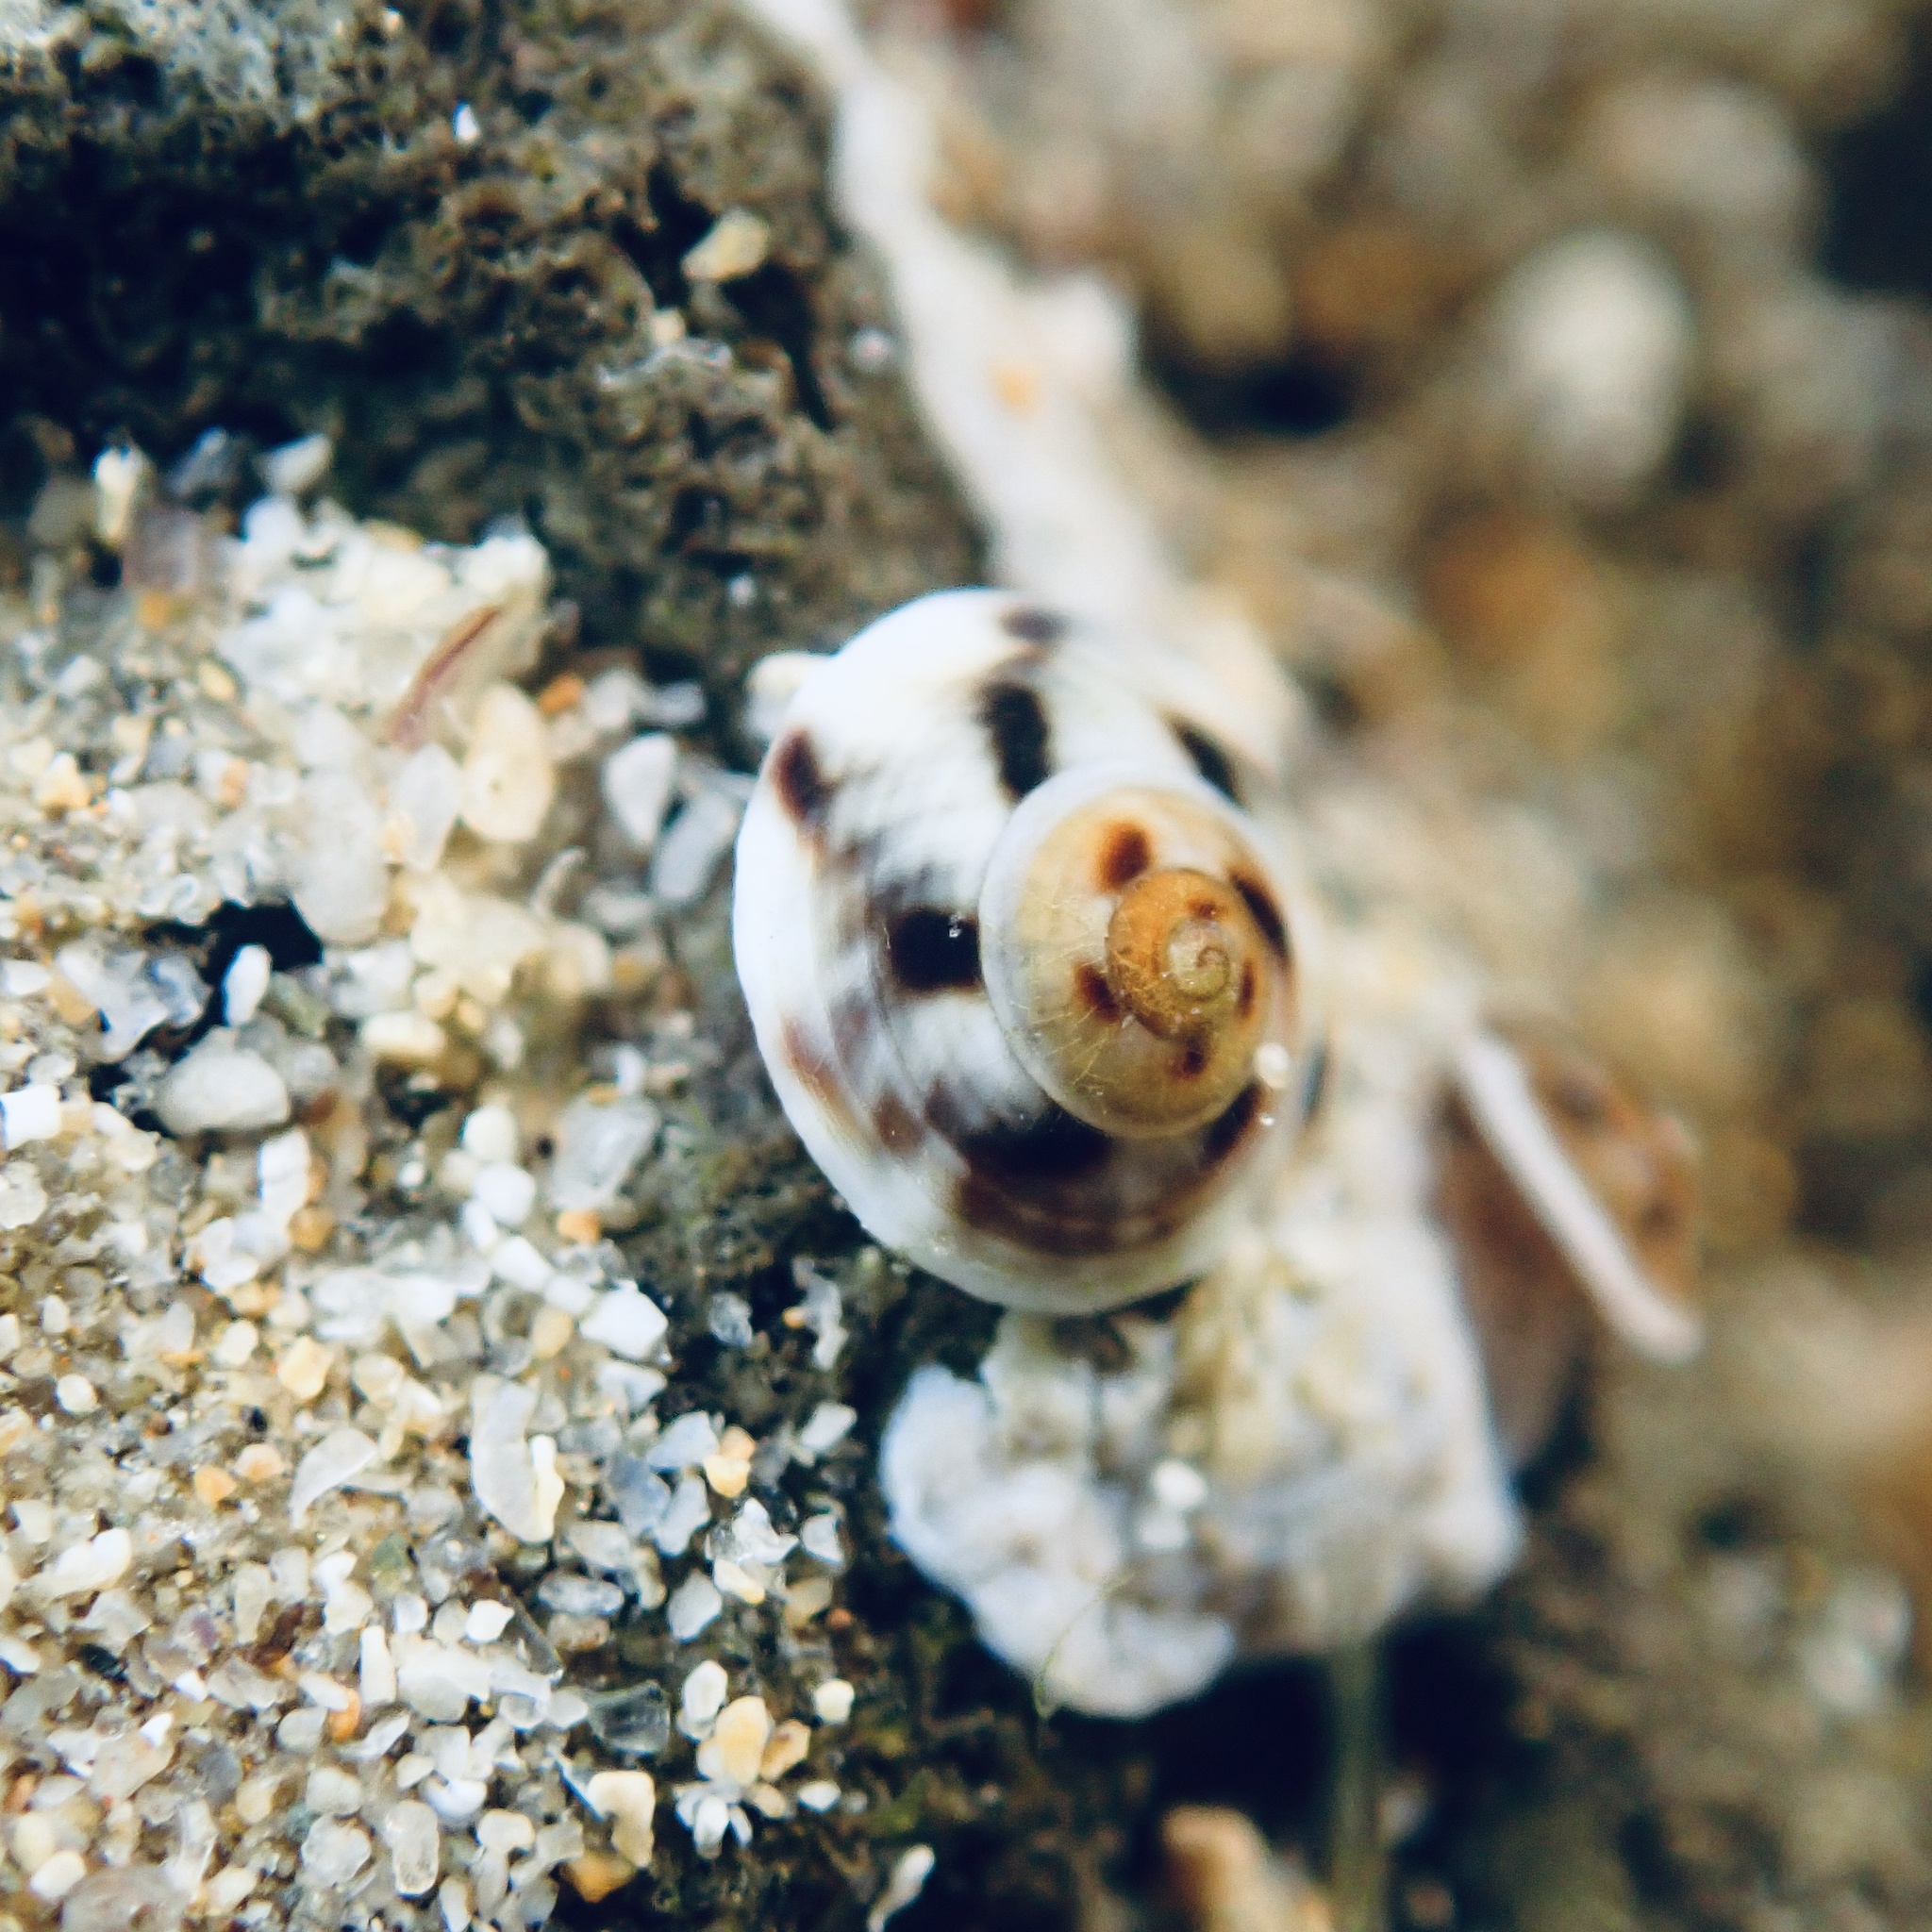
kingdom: Animalia
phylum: Mollusca
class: Gastropoda
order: Littorinimorpha
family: Littorinidae
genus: Bembicium
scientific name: Bembicium nanum
